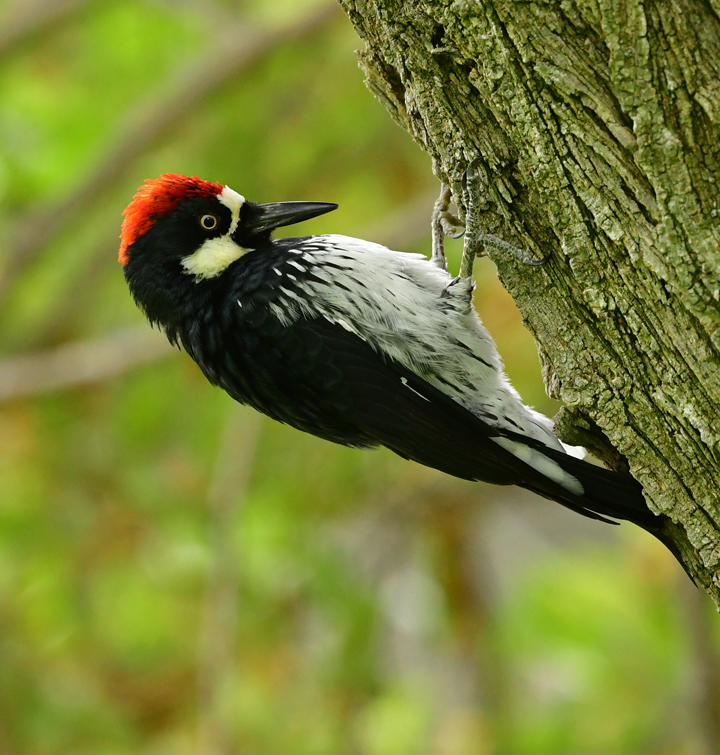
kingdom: Animalia
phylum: Chordata
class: Aves
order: Piciformes
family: Picidae
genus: Melanerpes
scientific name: Melanerpes formicivorus
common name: Acorn woodpecker
